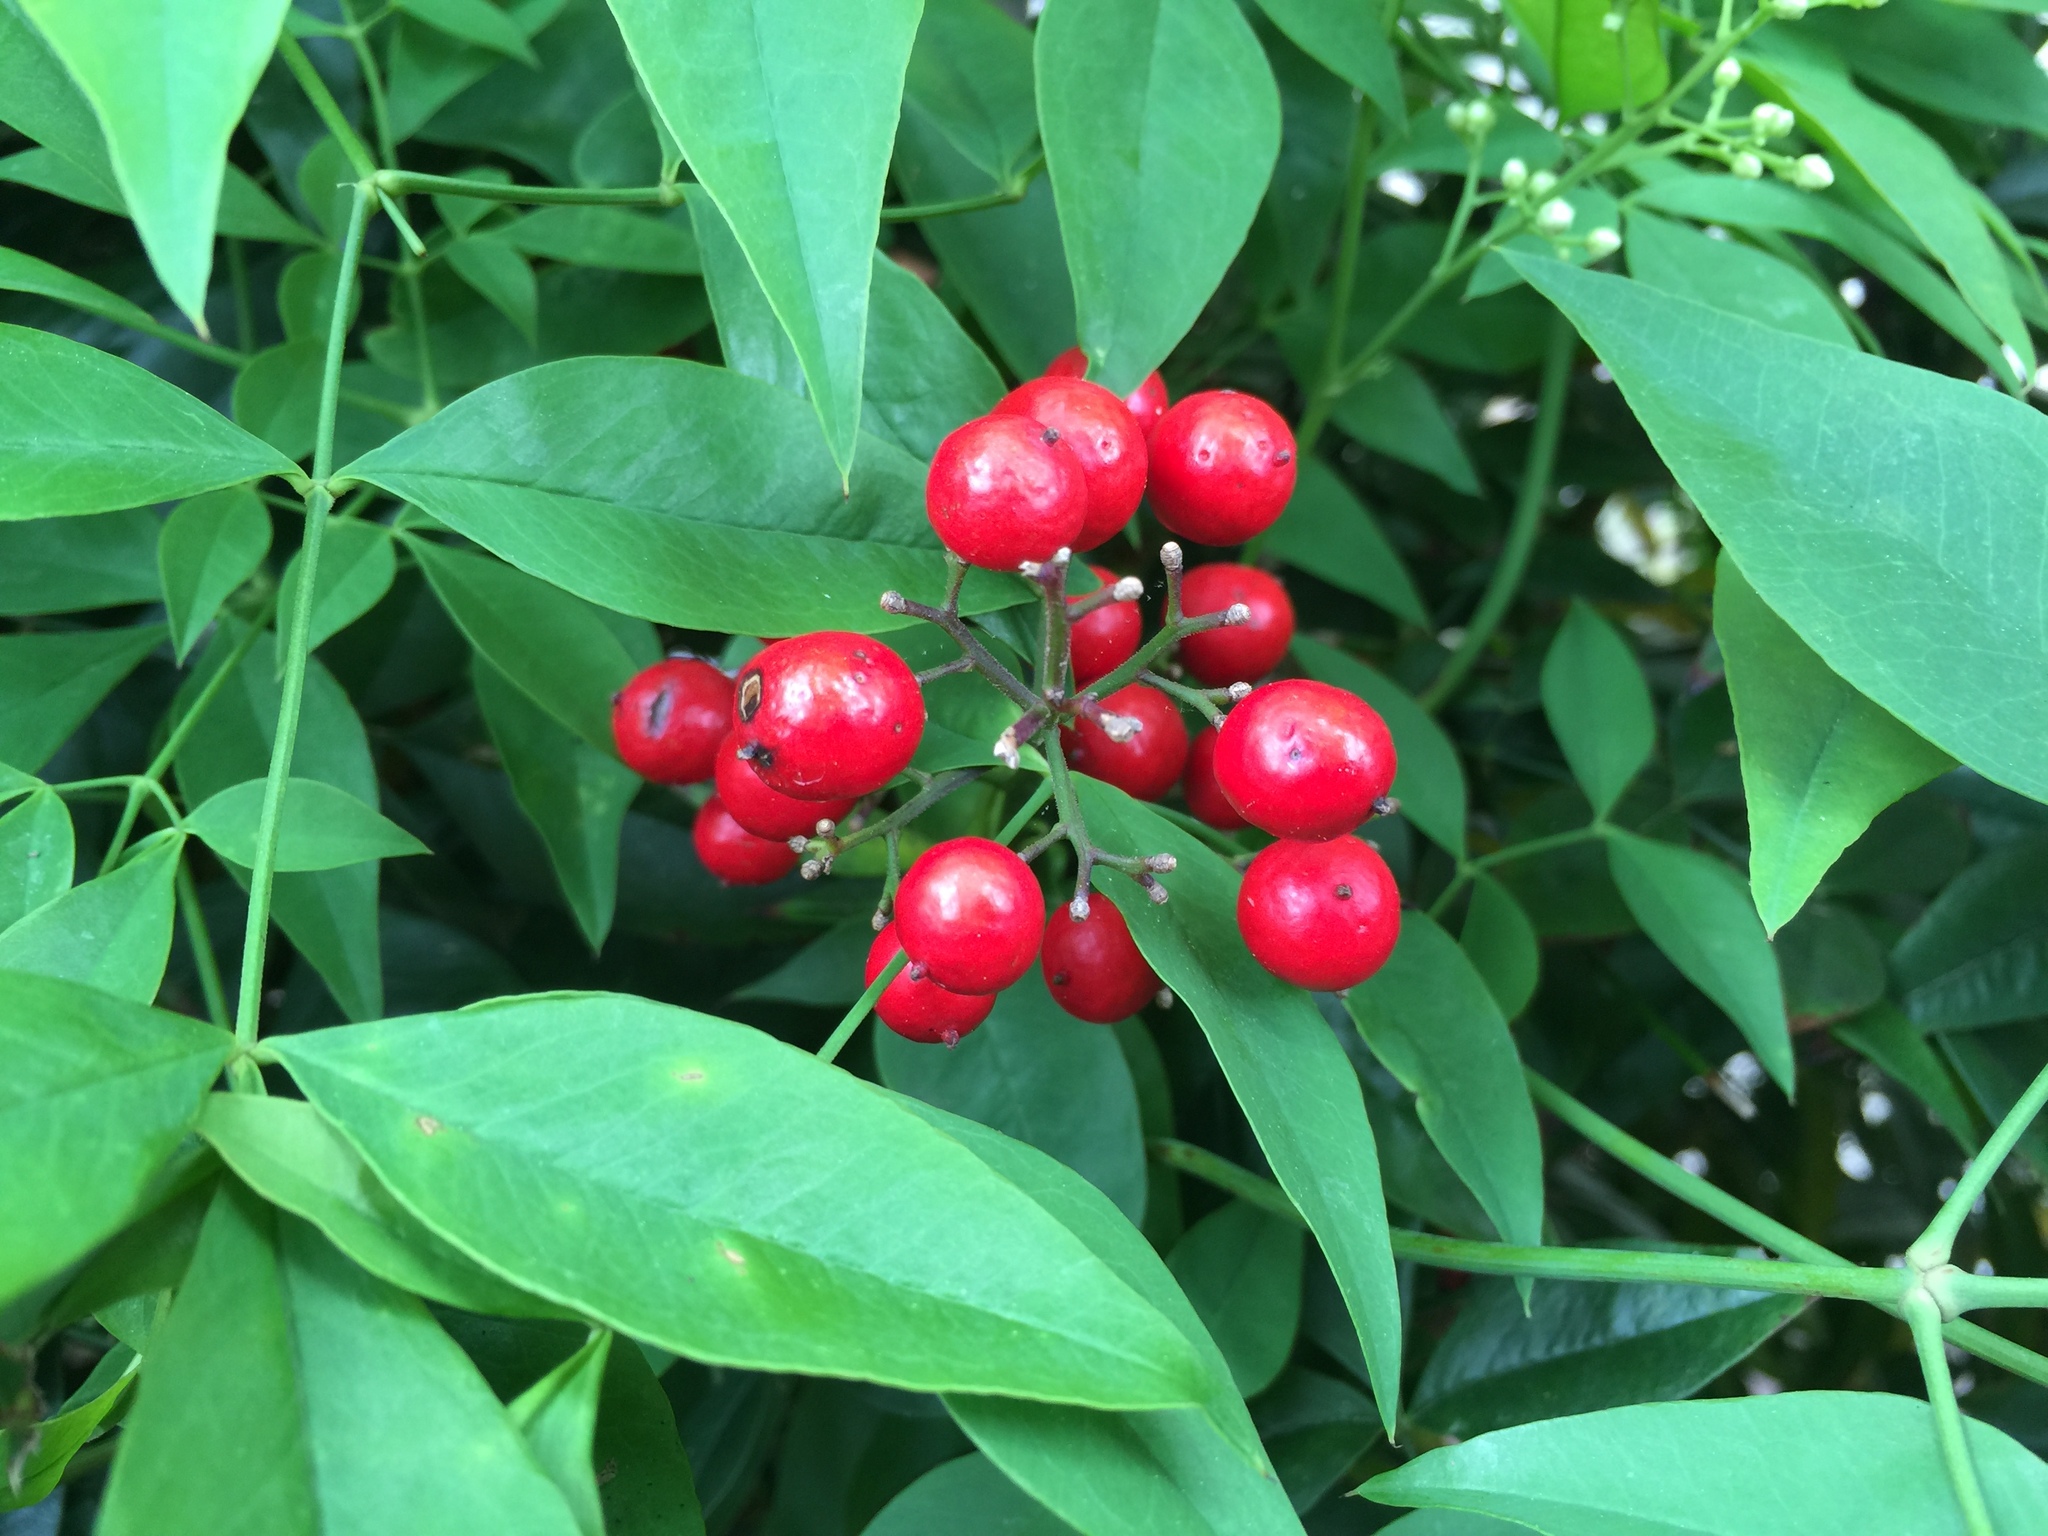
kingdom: Plantae
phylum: Tracheophyta
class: Magnoliopsida
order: Ranunculales
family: Berberidaceae
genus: Nandina
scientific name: Nandina domestica
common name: Sacred bamboo
